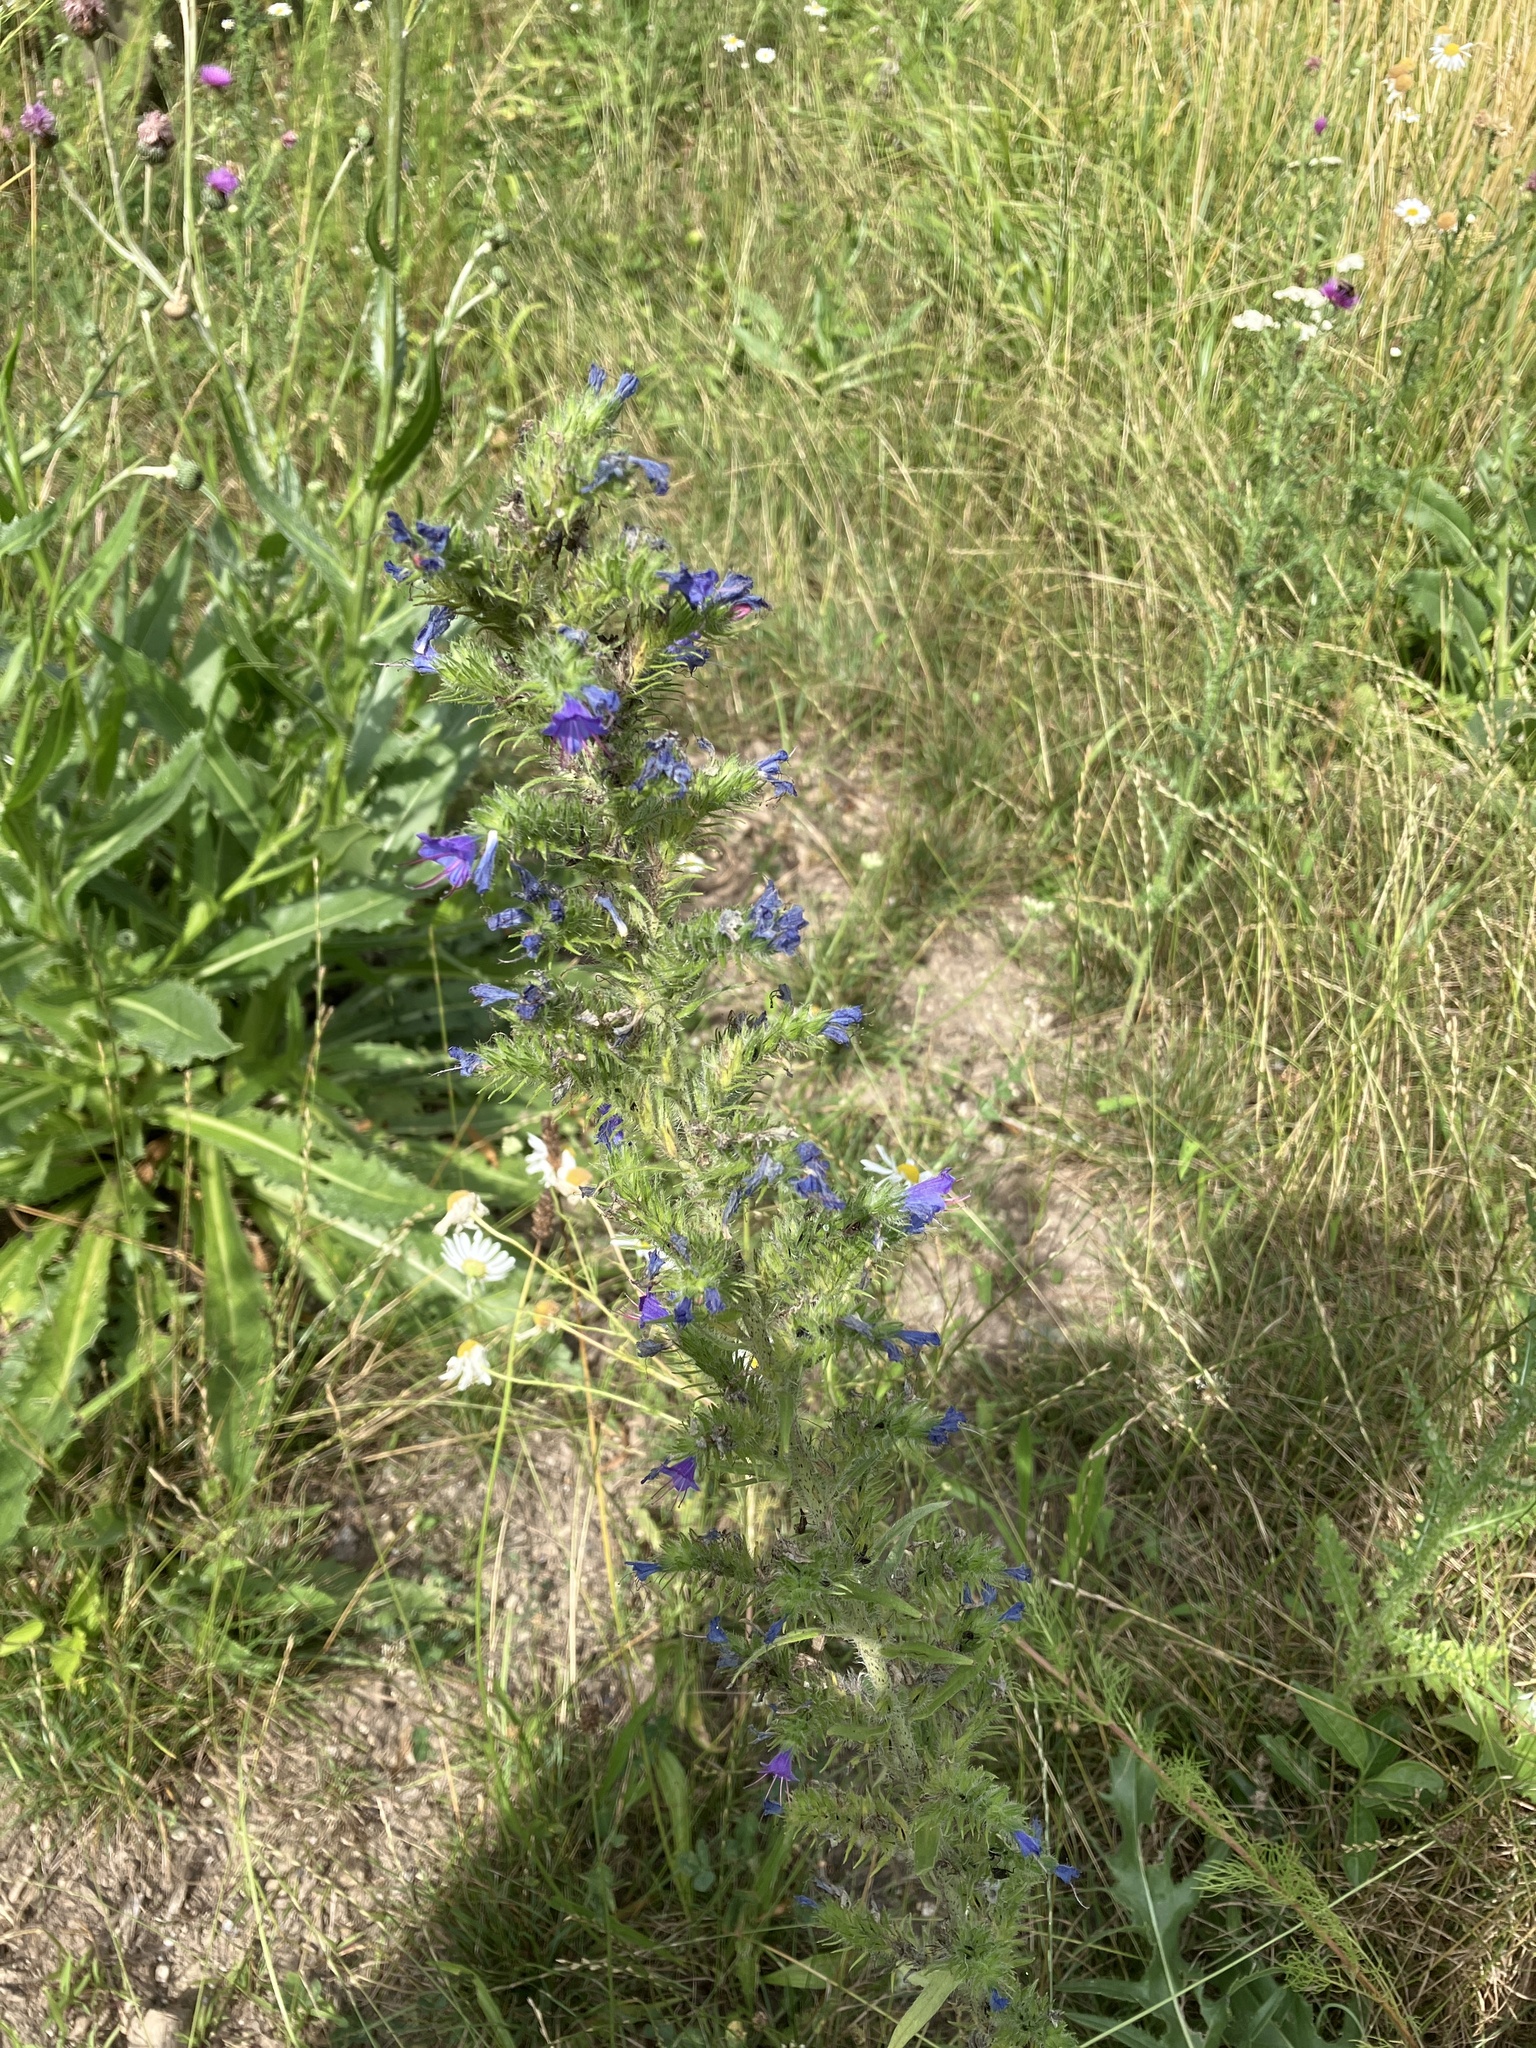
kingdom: Plantae
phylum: Tracheophyta
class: Magnoliopsida
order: Boraginales
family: Boraginaceae
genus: Echium
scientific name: Echium vulgare
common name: Common viper's bugloss
